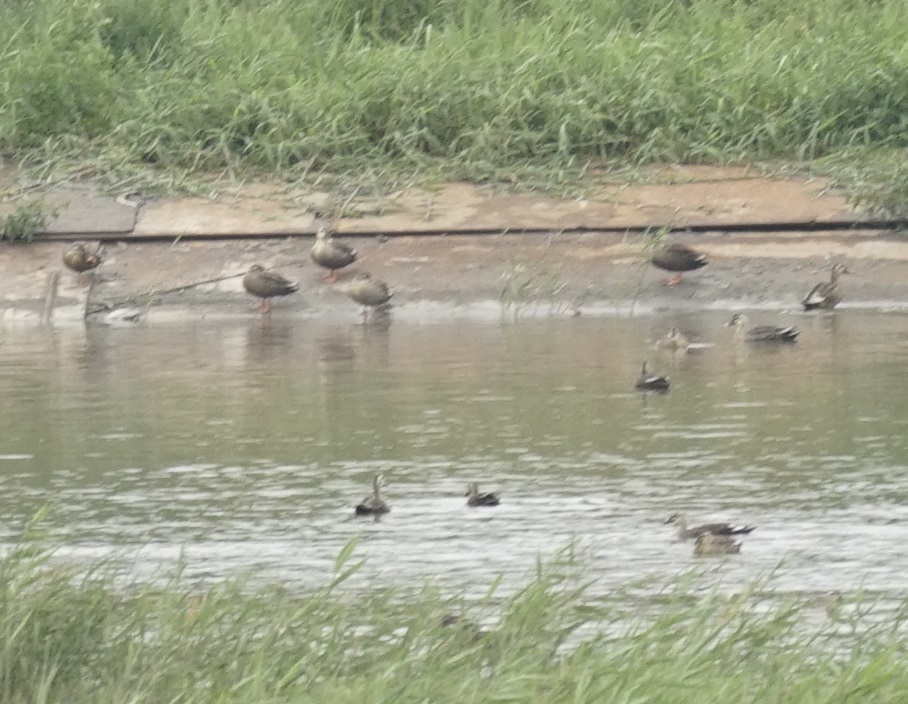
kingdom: Animalia
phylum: Chordata
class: Aves
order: Anseriformes
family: Anatidae
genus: Anas
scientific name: Anas zonorhyncha
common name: Eastern spot-billed duck
